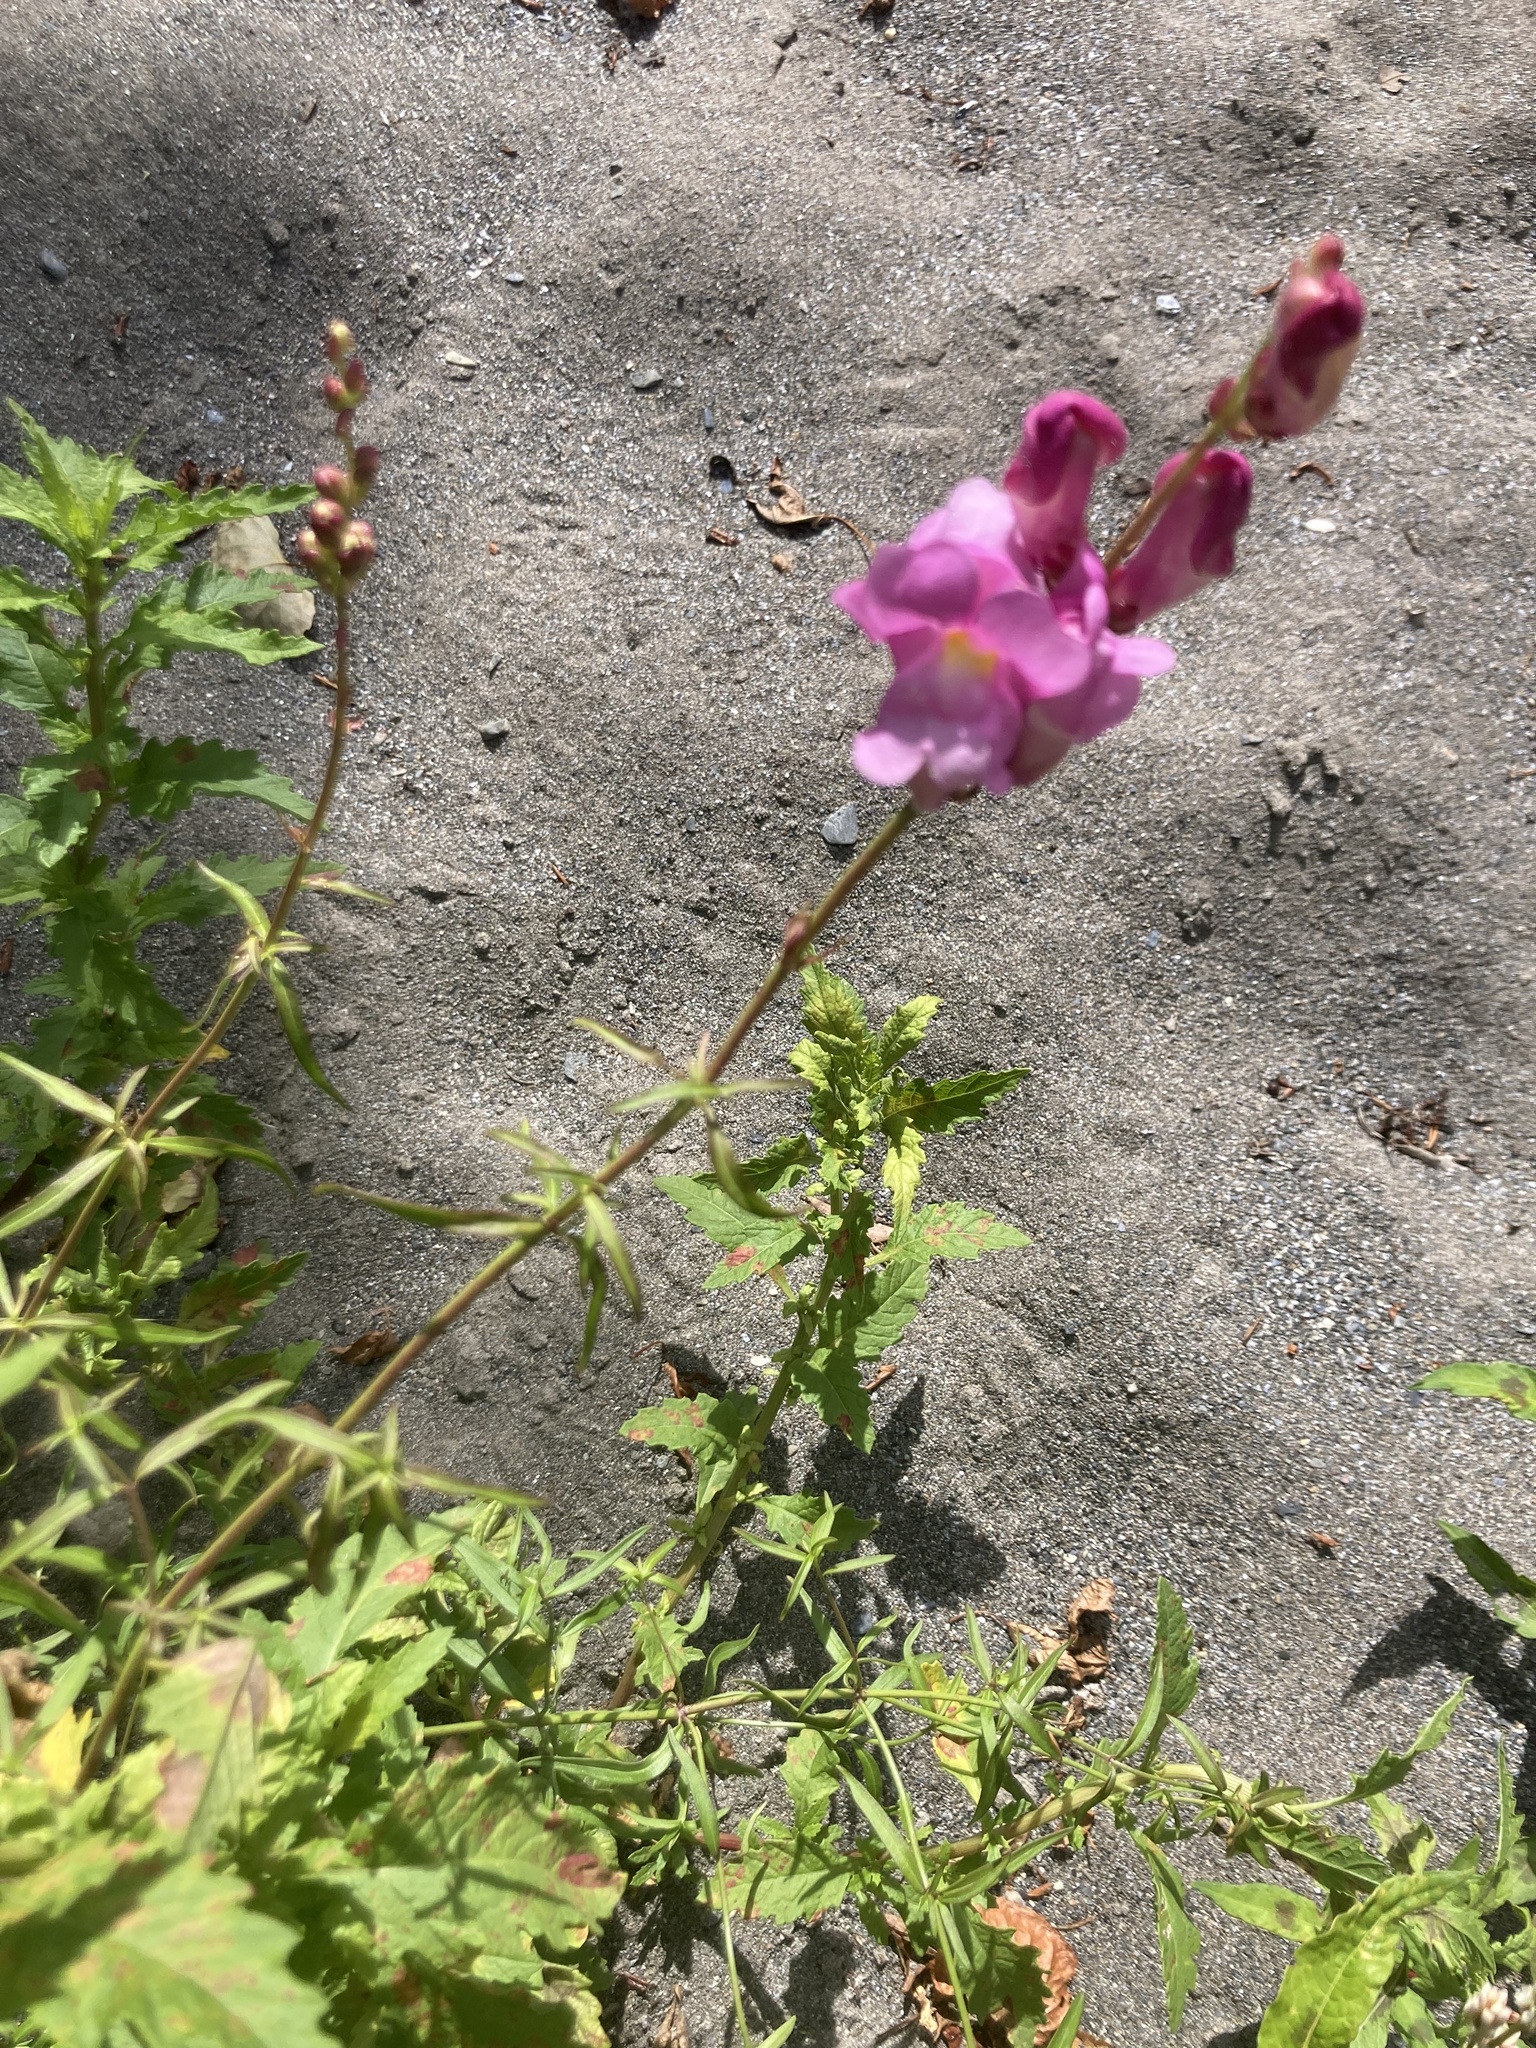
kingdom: Plantae
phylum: Tracheophyta
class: Magnoliopsida
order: Lamiales
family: Plantaginaceae
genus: Antirrhinum
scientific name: Antirrhinum tortuosum
